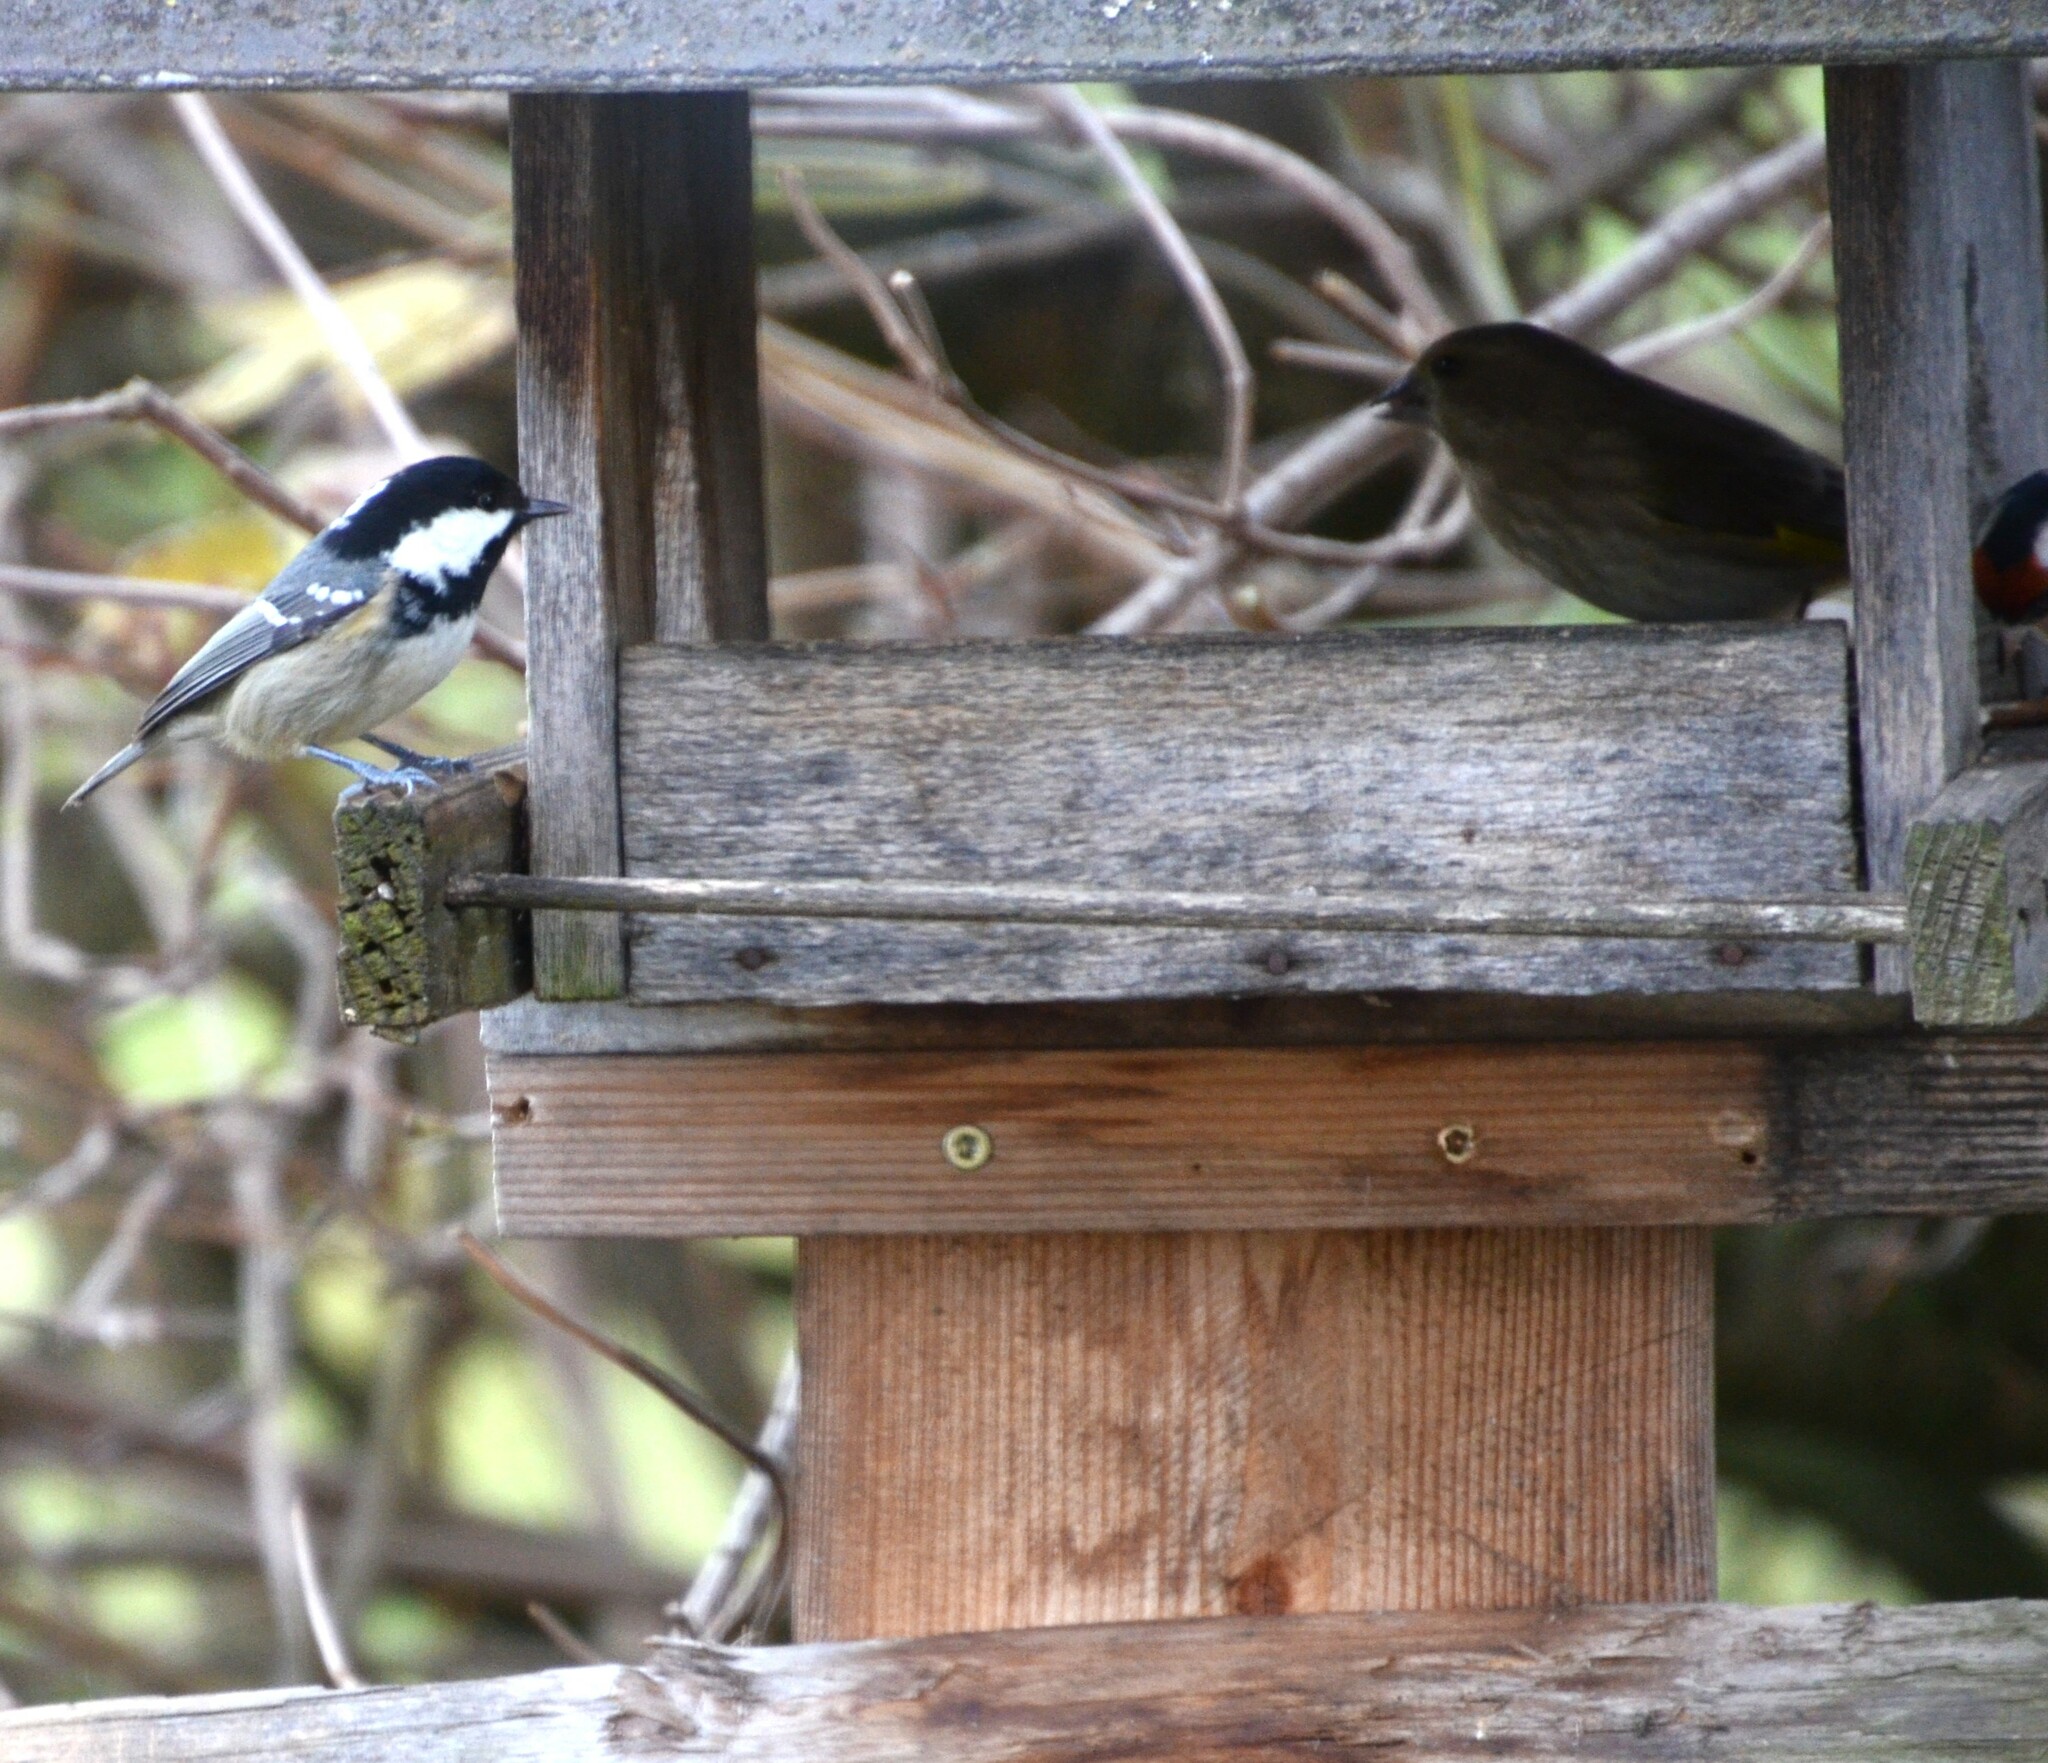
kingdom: Plantae
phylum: Tracheophyta
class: Liliopsida
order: Poales
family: Poaceae
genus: Chloris
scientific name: Chloris chloris
